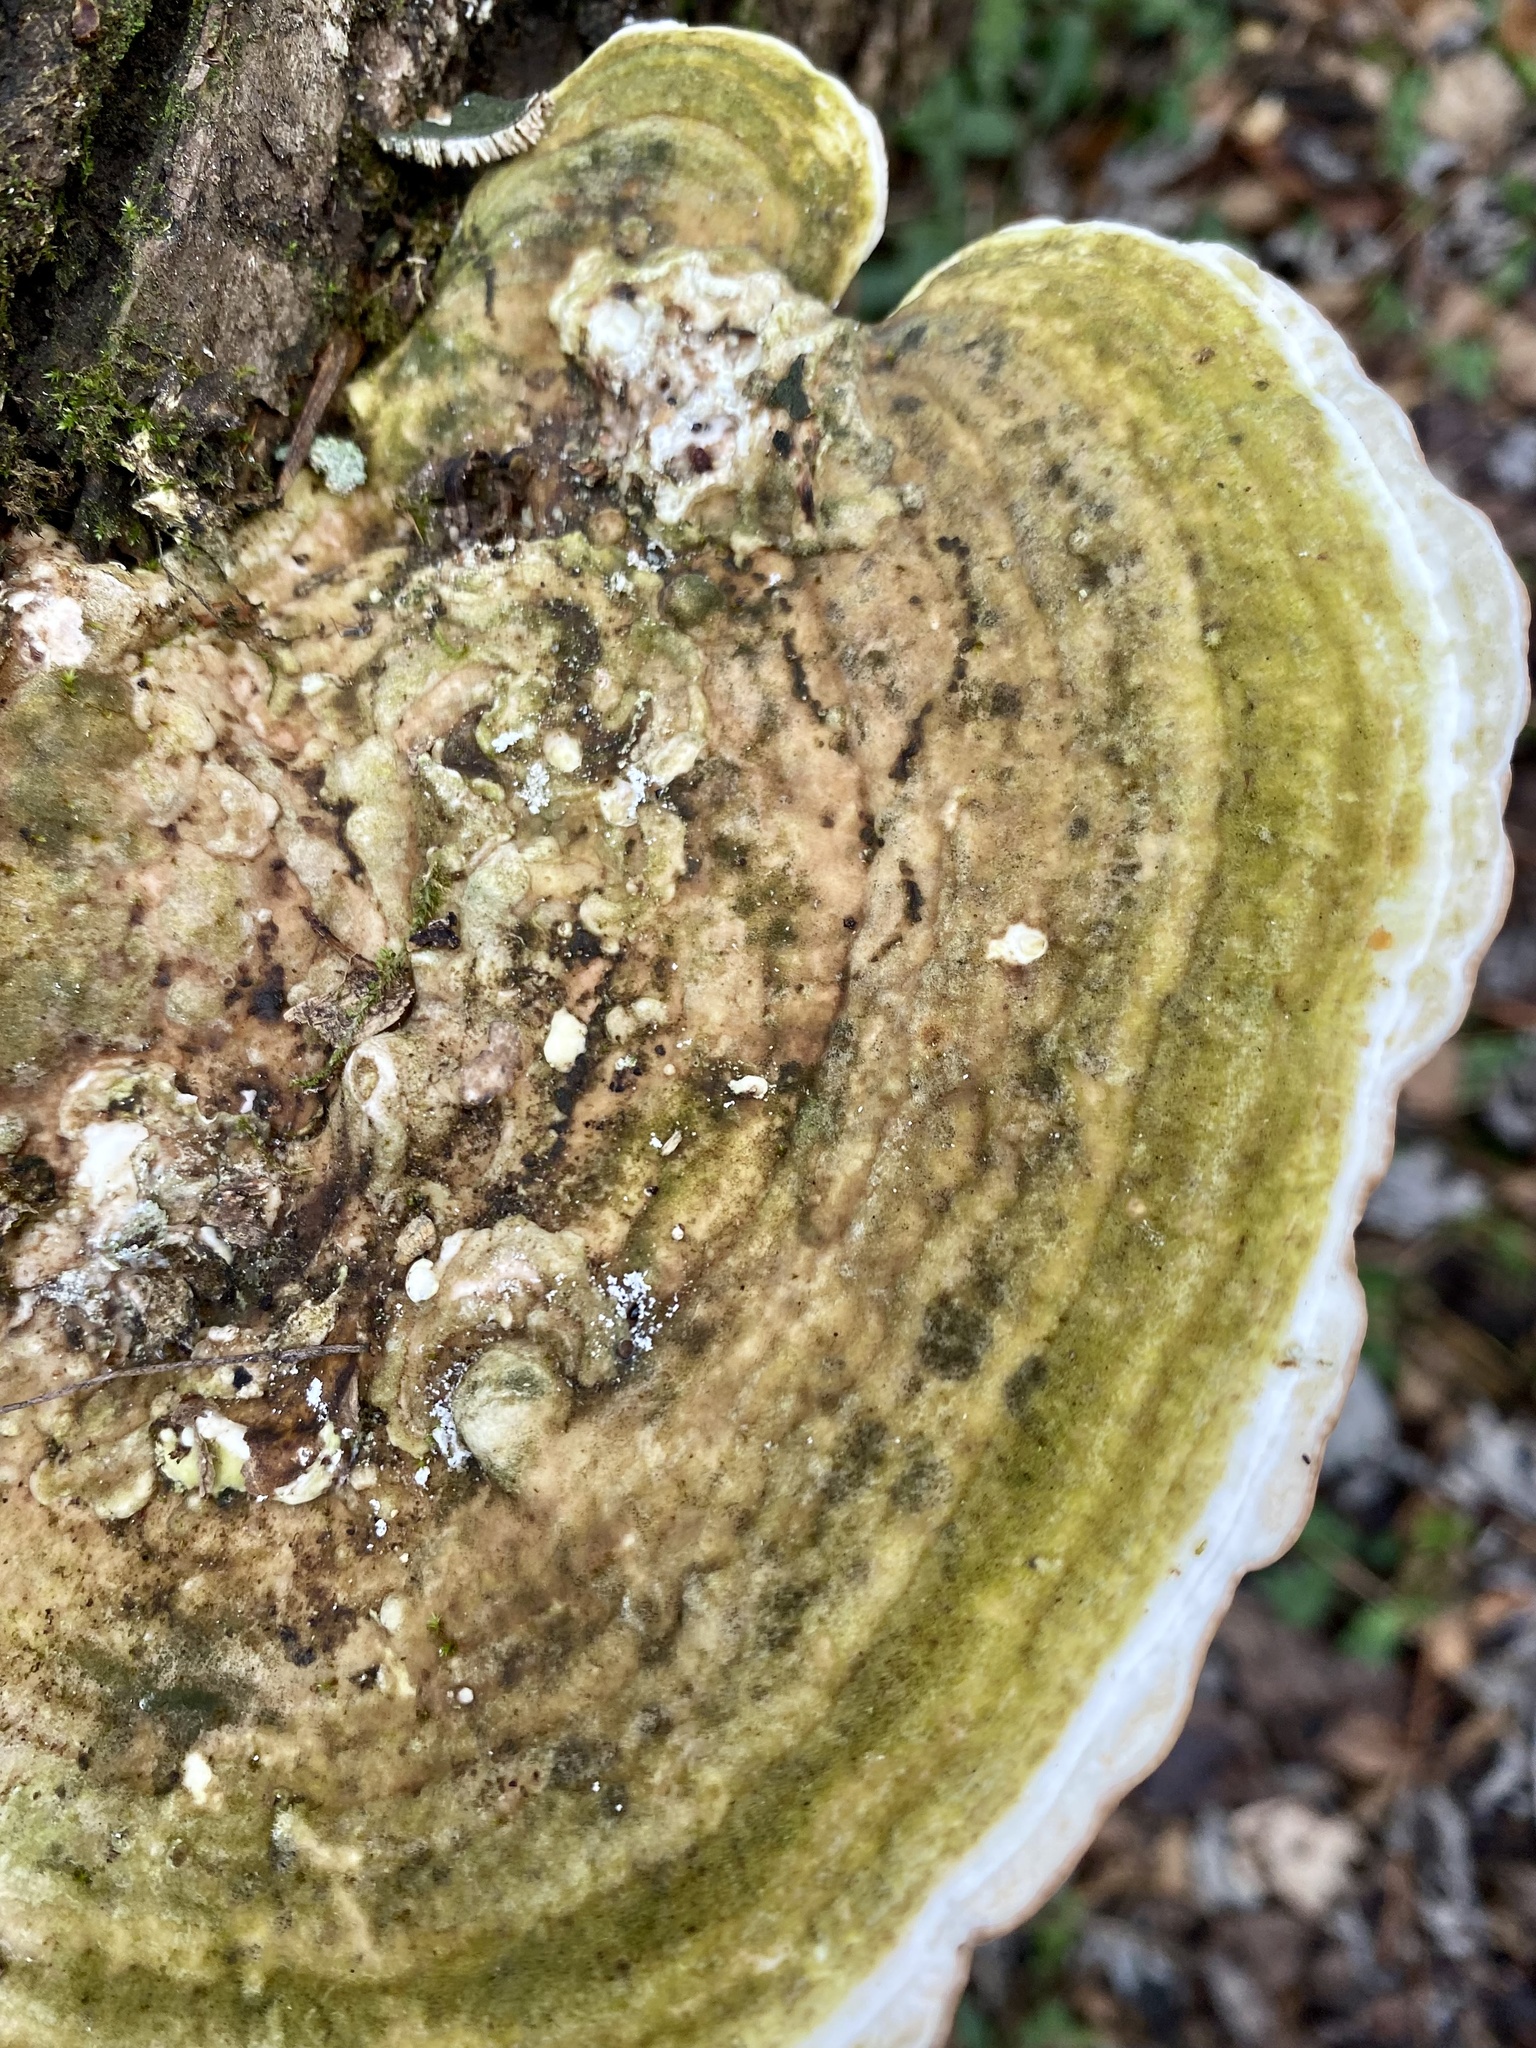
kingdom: Fungi
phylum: Basidiomycota
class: Agaricomycetes
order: Polyporales
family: Polyporaceae
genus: Trametes
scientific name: Trametes gibbosa
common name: Lumpy bracket
